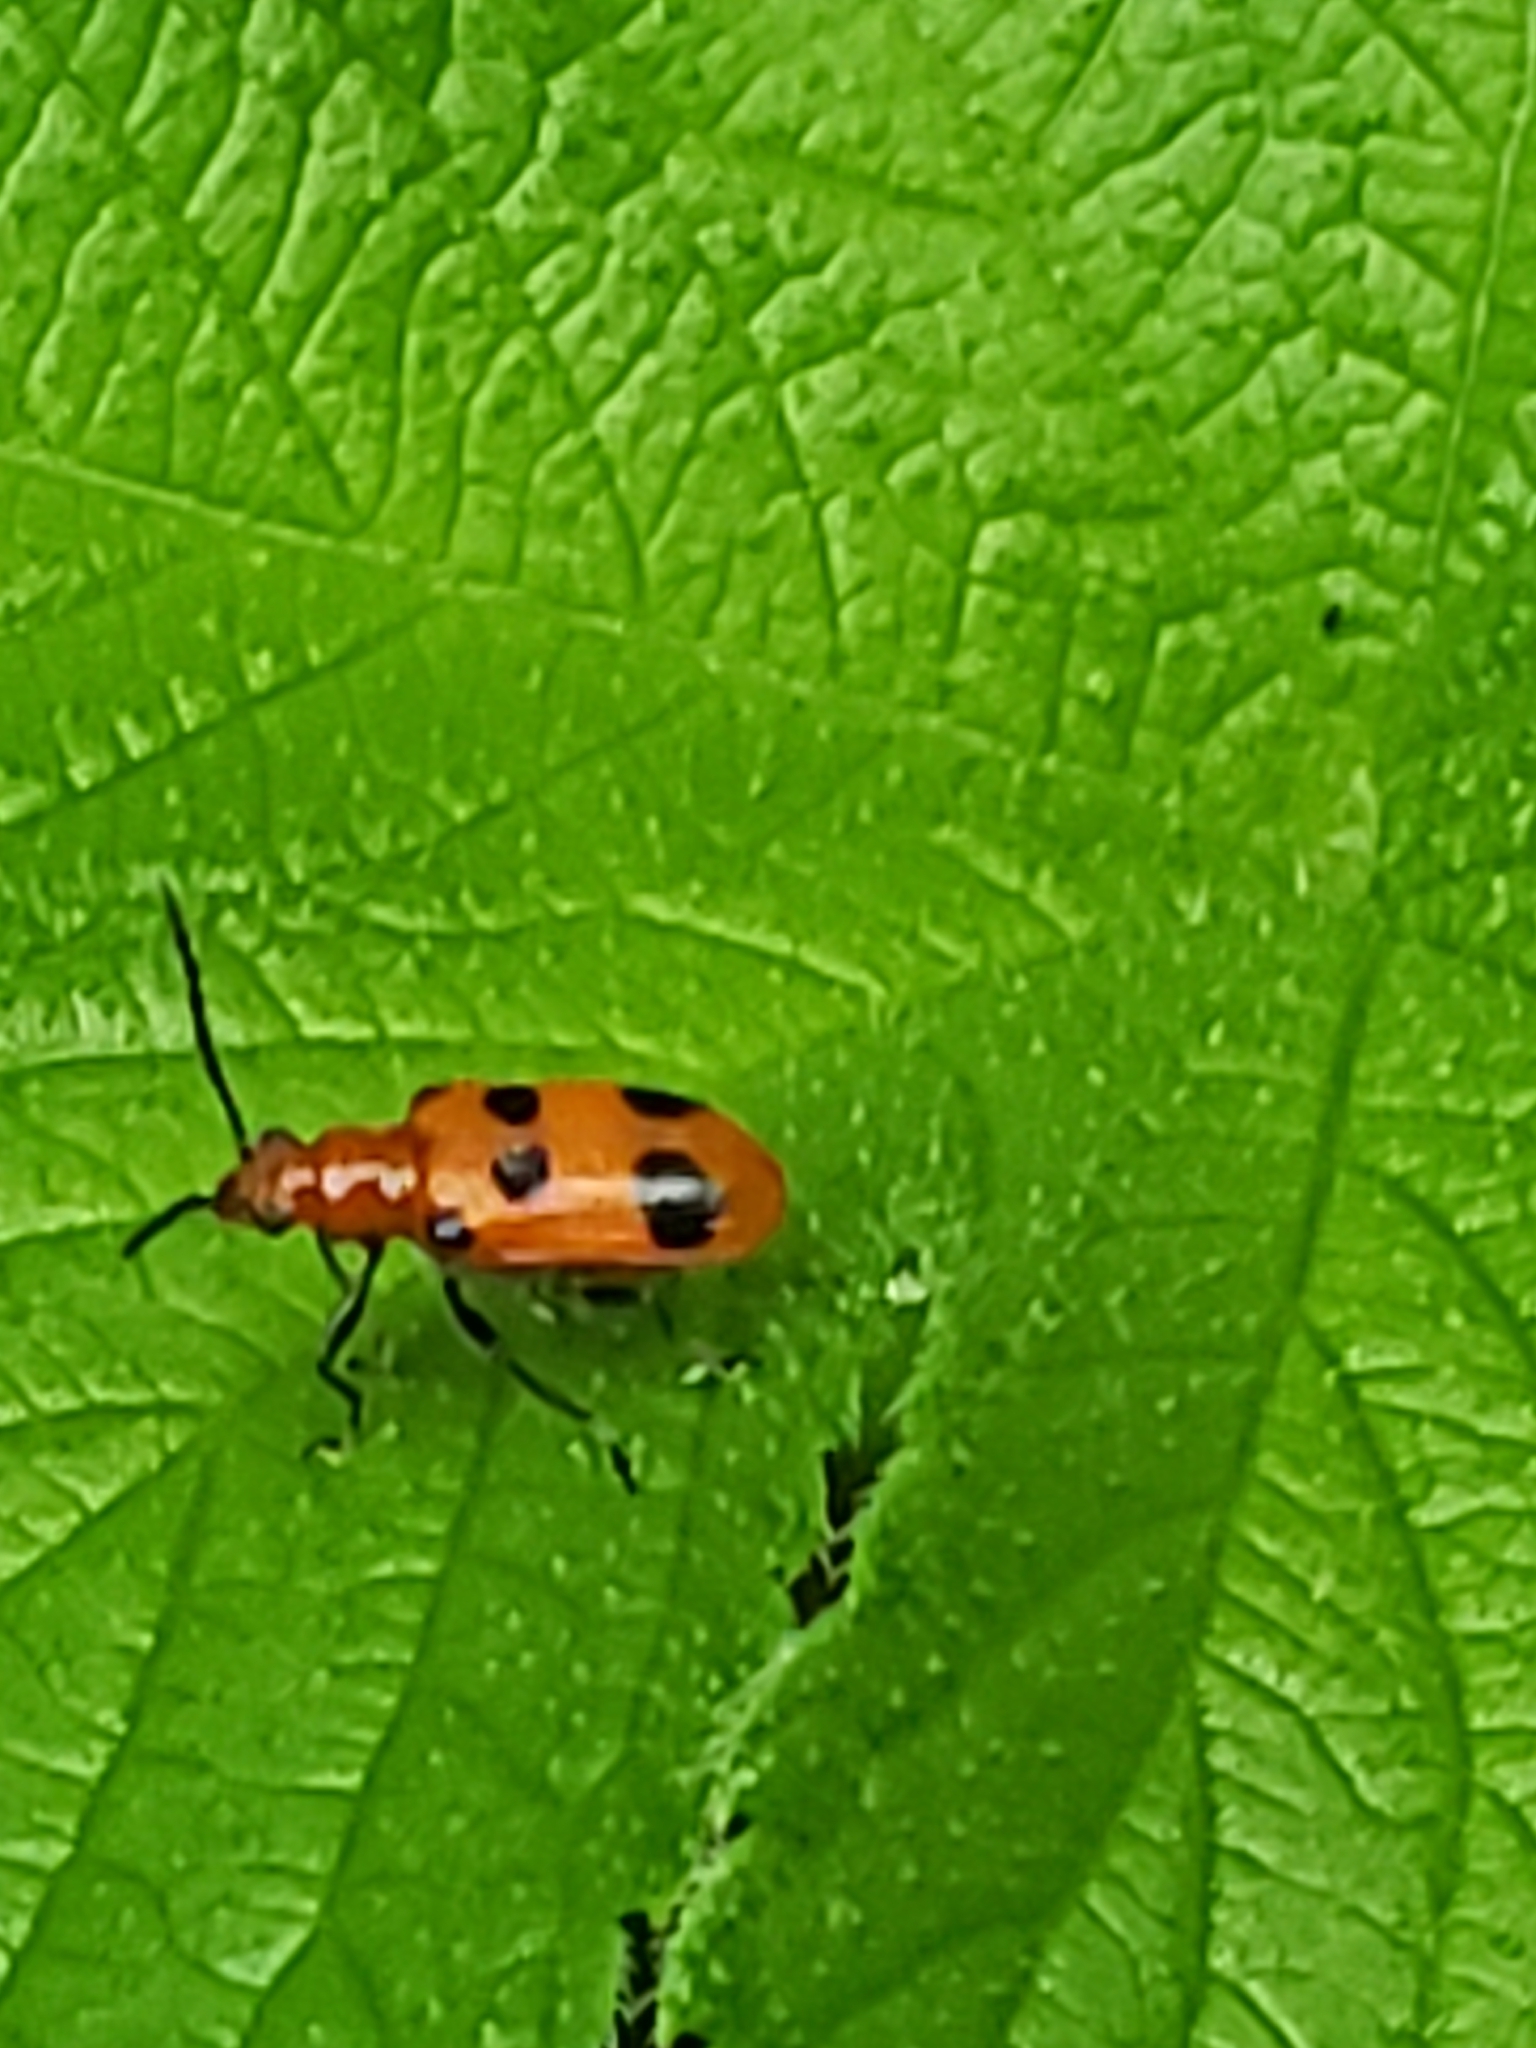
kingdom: Animalia
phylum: Arthropoda
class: Insecta
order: Coleoptera
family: Chrysomelidae
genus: Neolema
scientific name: Neolema sexpunctata
